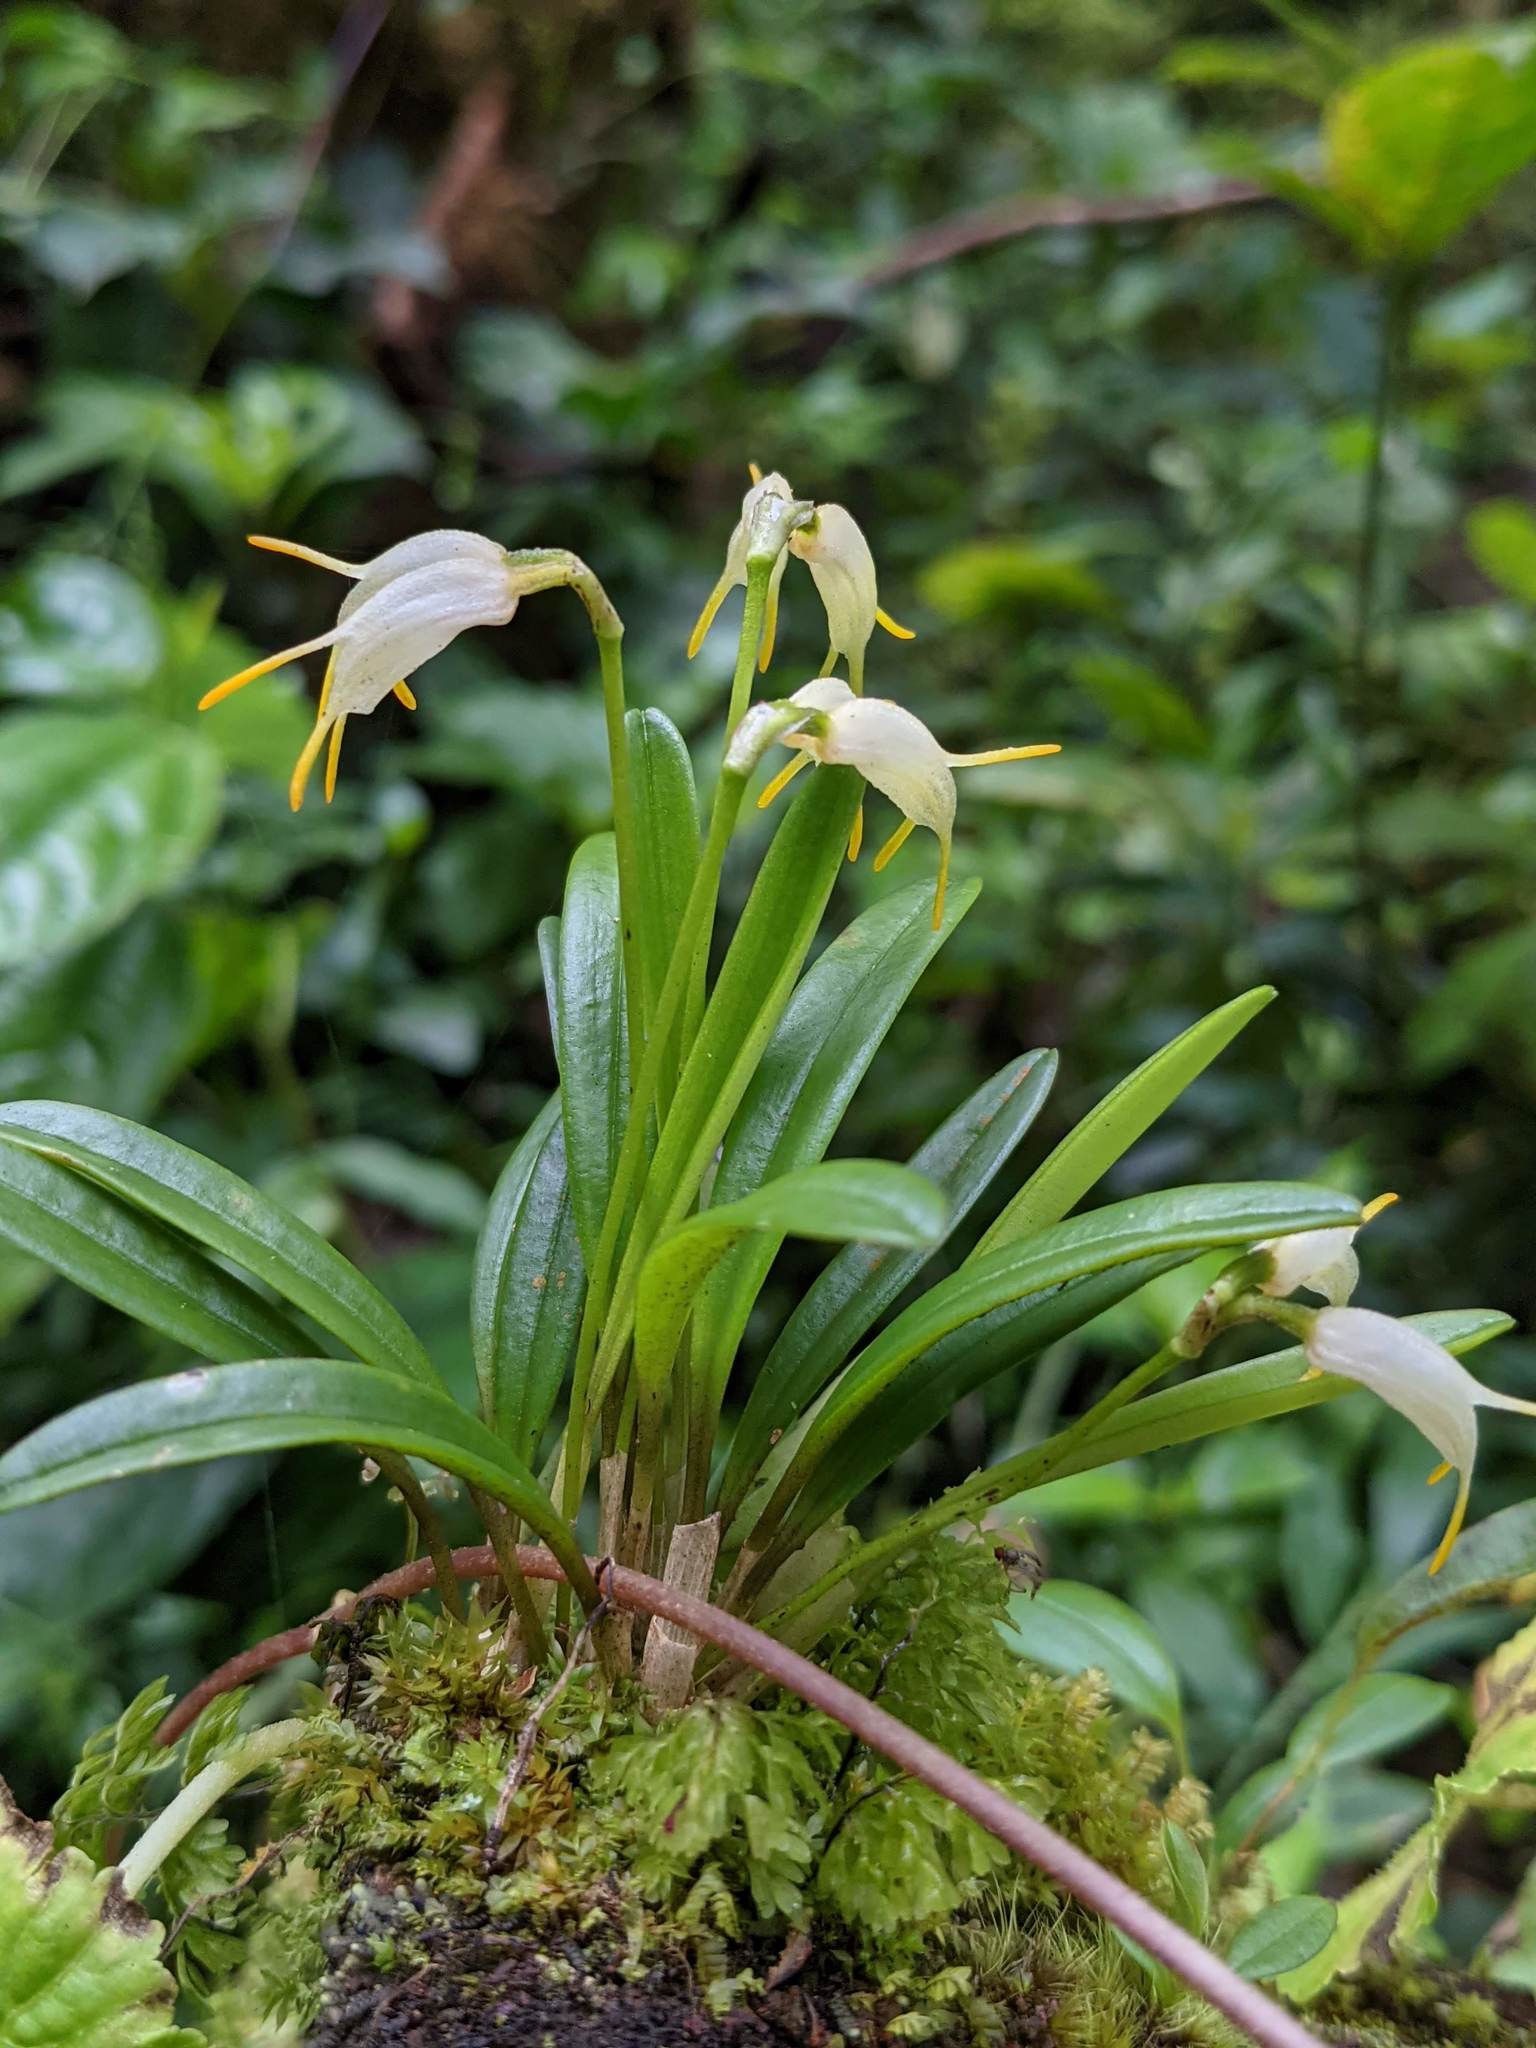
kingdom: Plantae
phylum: Tracheophyta
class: Liliopsida
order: Asparagales
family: Orchidaceae
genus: Masdevallia
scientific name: Masdevallia chontalensis
